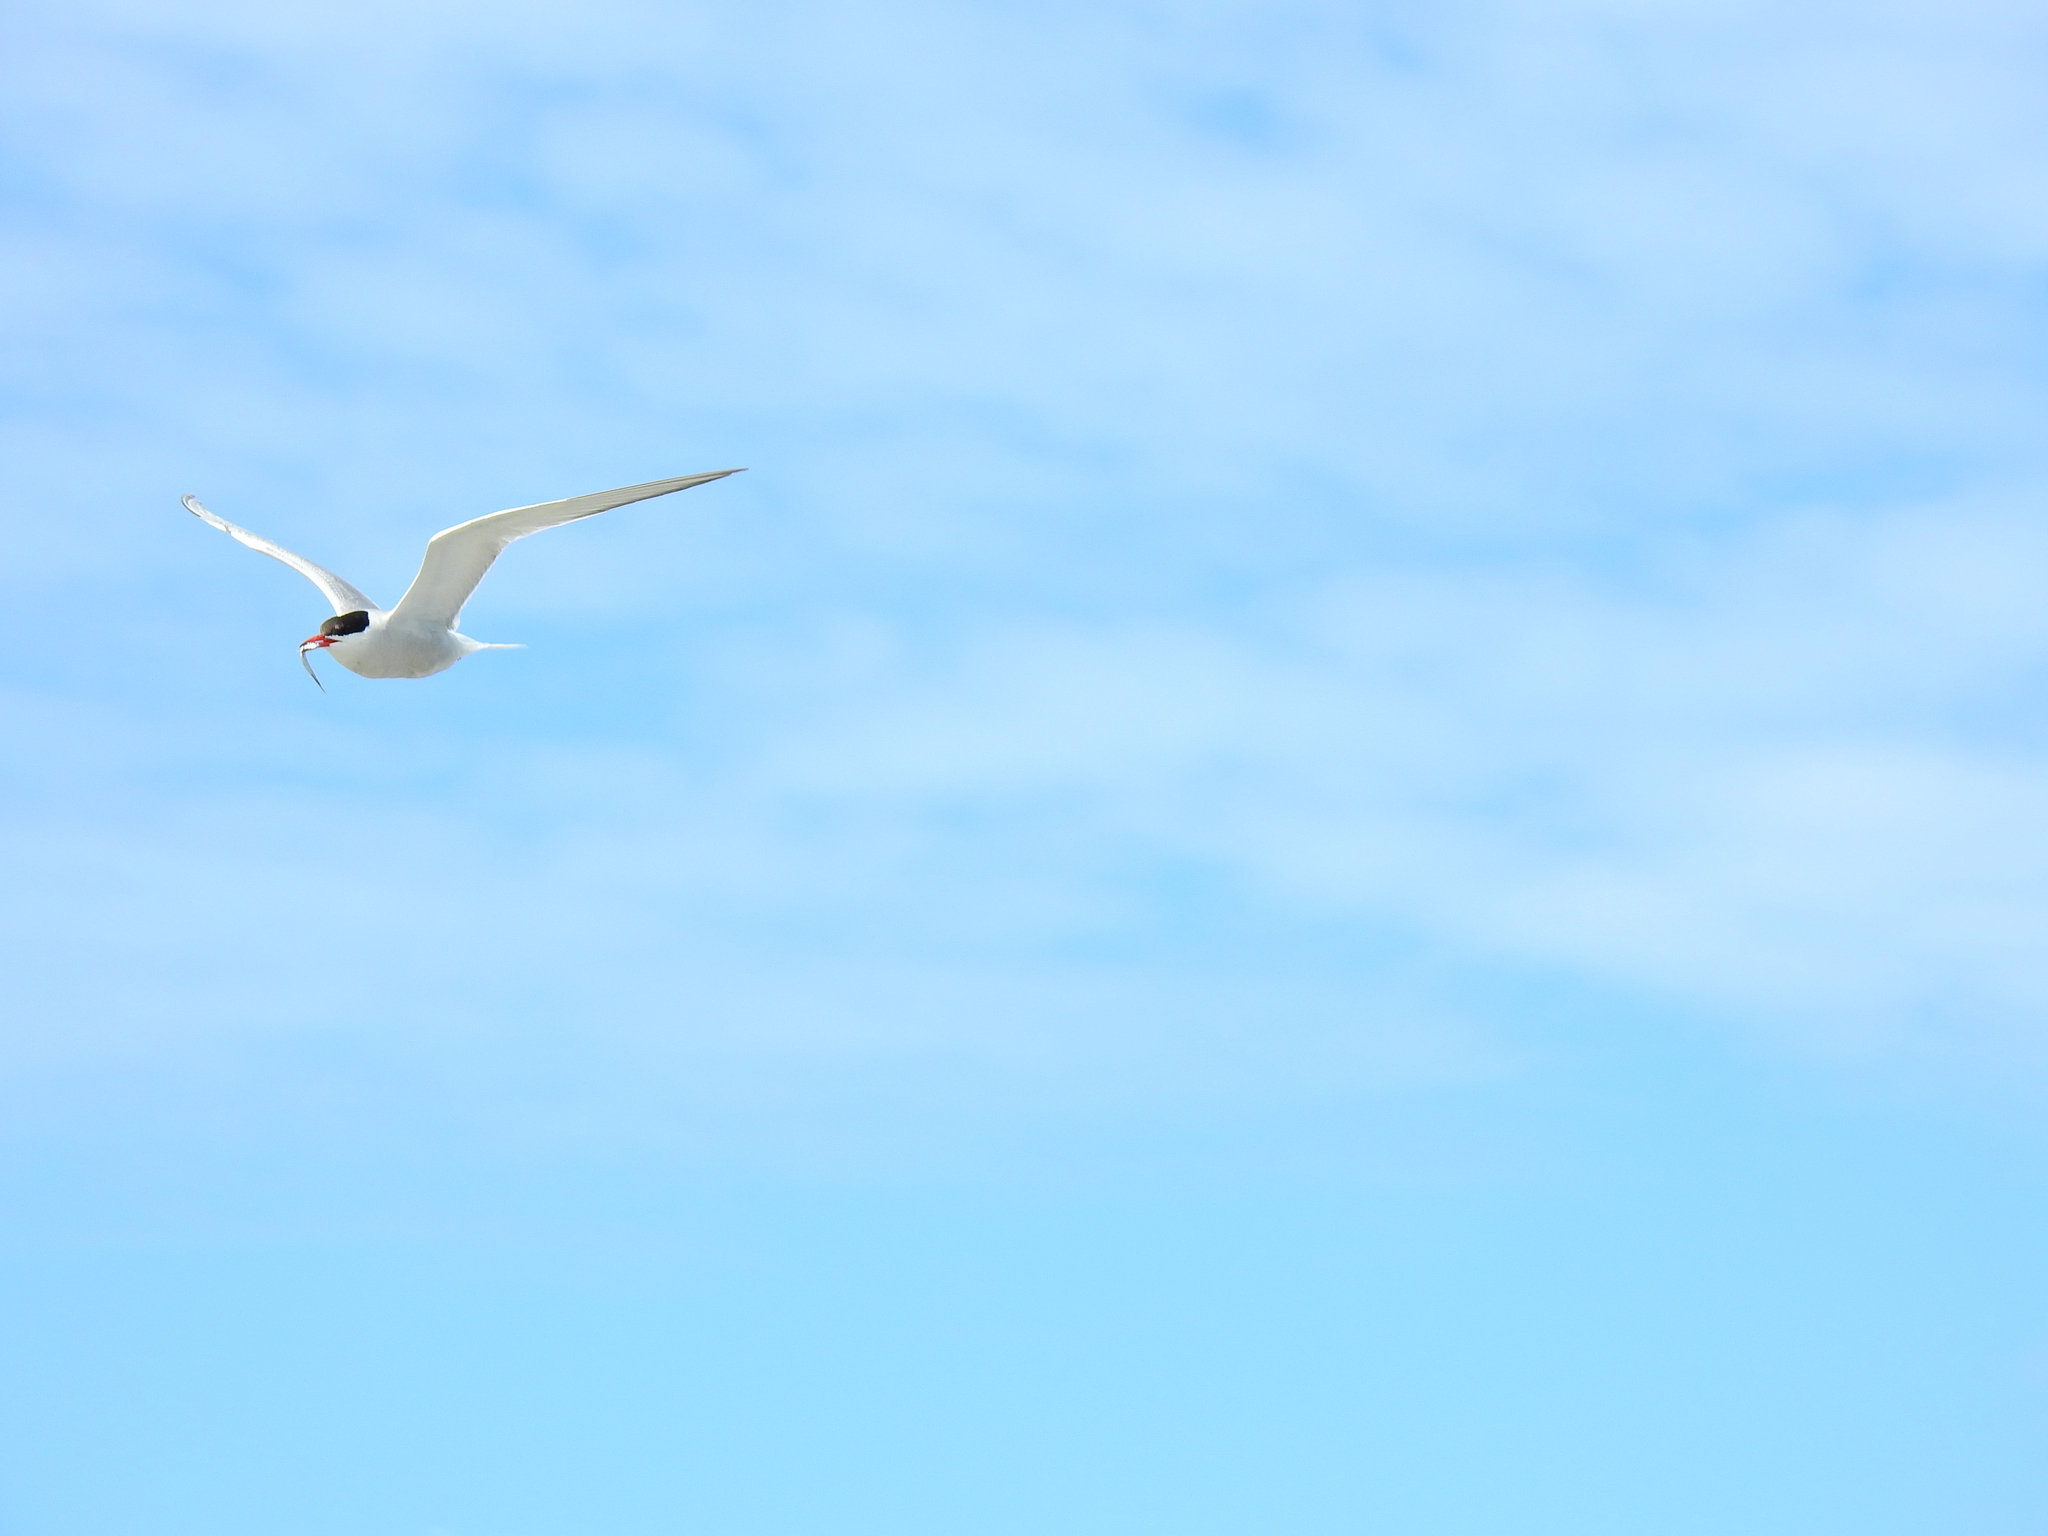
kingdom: Animalia
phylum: Chordata
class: Aves
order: Charadriiformes
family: Laridae
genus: Sterna
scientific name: Sterna paradisaea
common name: Arctic tern
